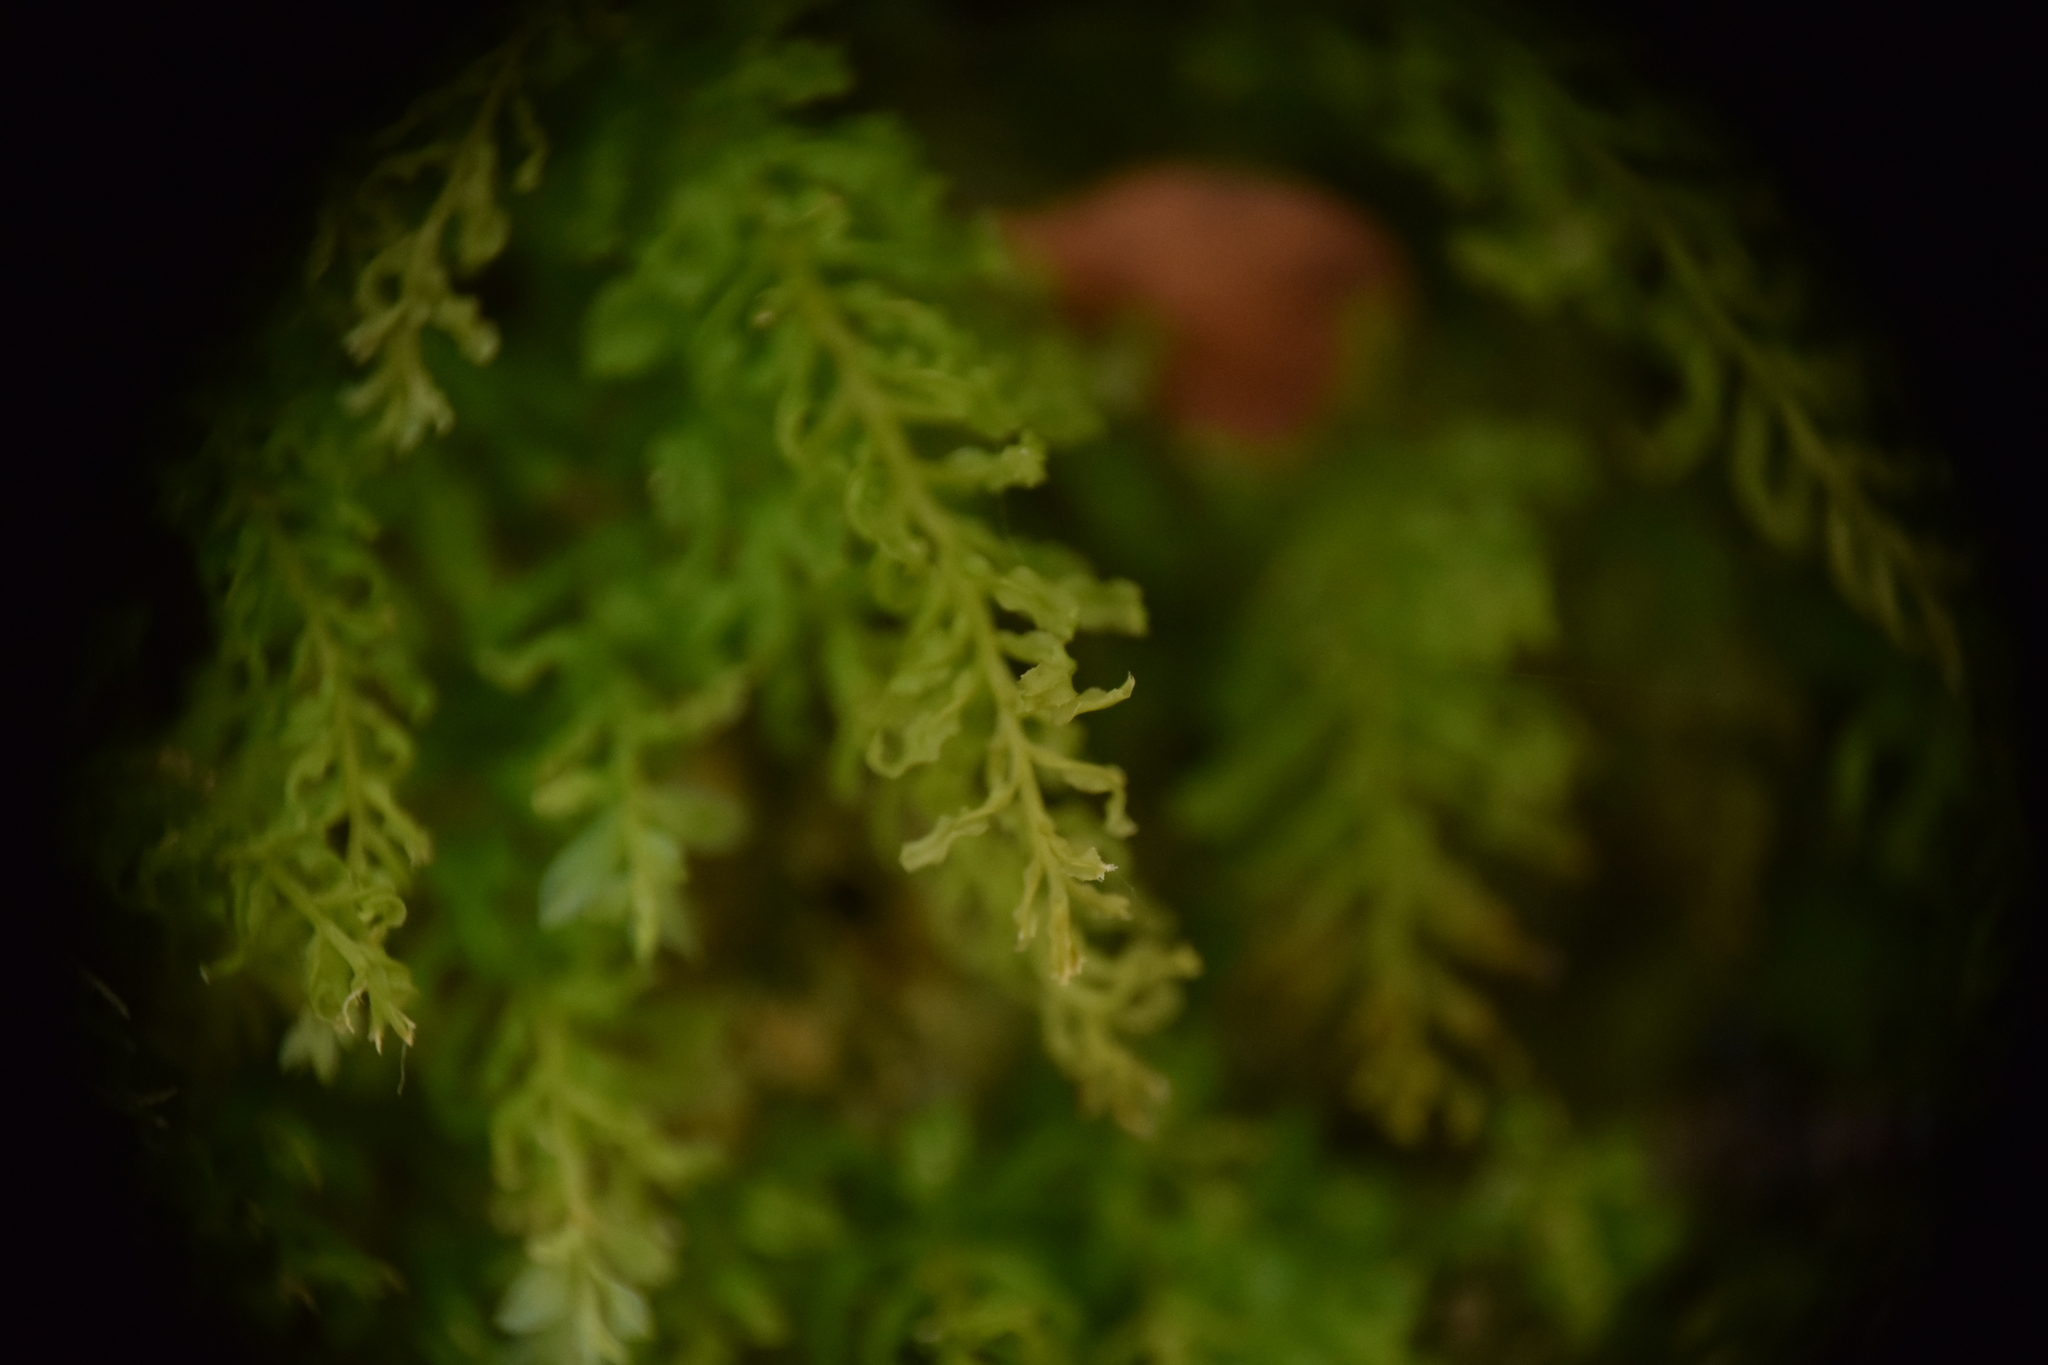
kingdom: Plantae
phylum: Bryophyta
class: Bryopsida
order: Bryales
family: Mniaceae
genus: Plagiomnium
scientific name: Plagiomnium undulatum
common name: Hart's-tongue thyme-moss
